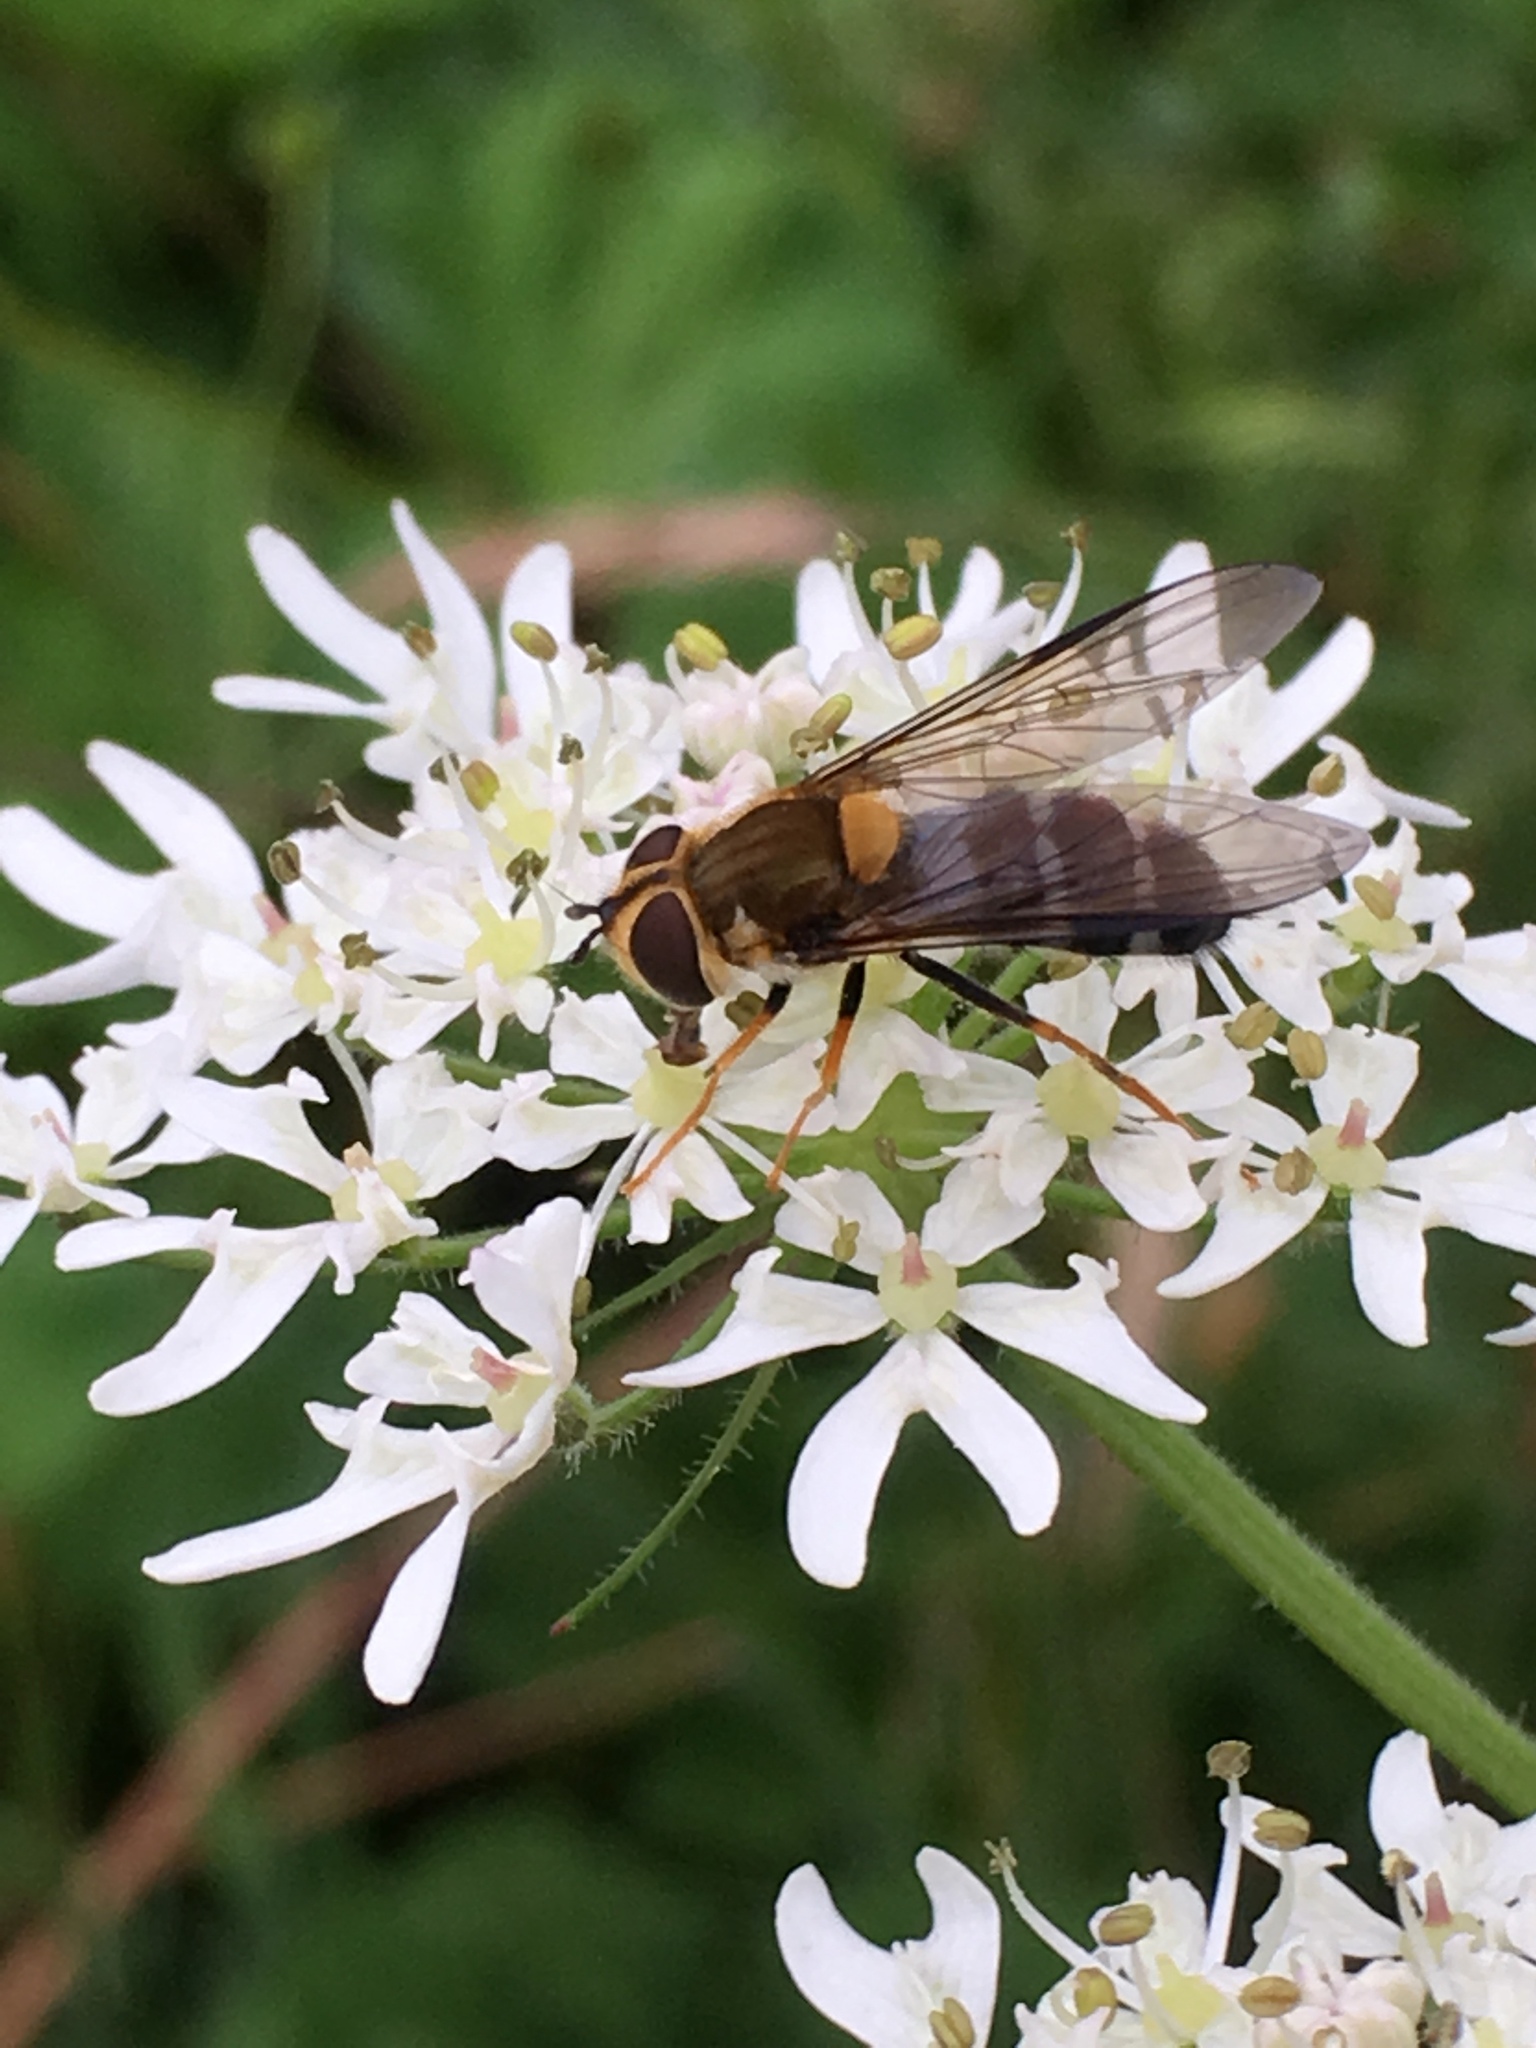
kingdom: Animalia
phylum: Arthropoda
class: Insecta
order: Diptera
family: Syrphidae
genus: Leucozona
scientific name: Leucozona glaucia
